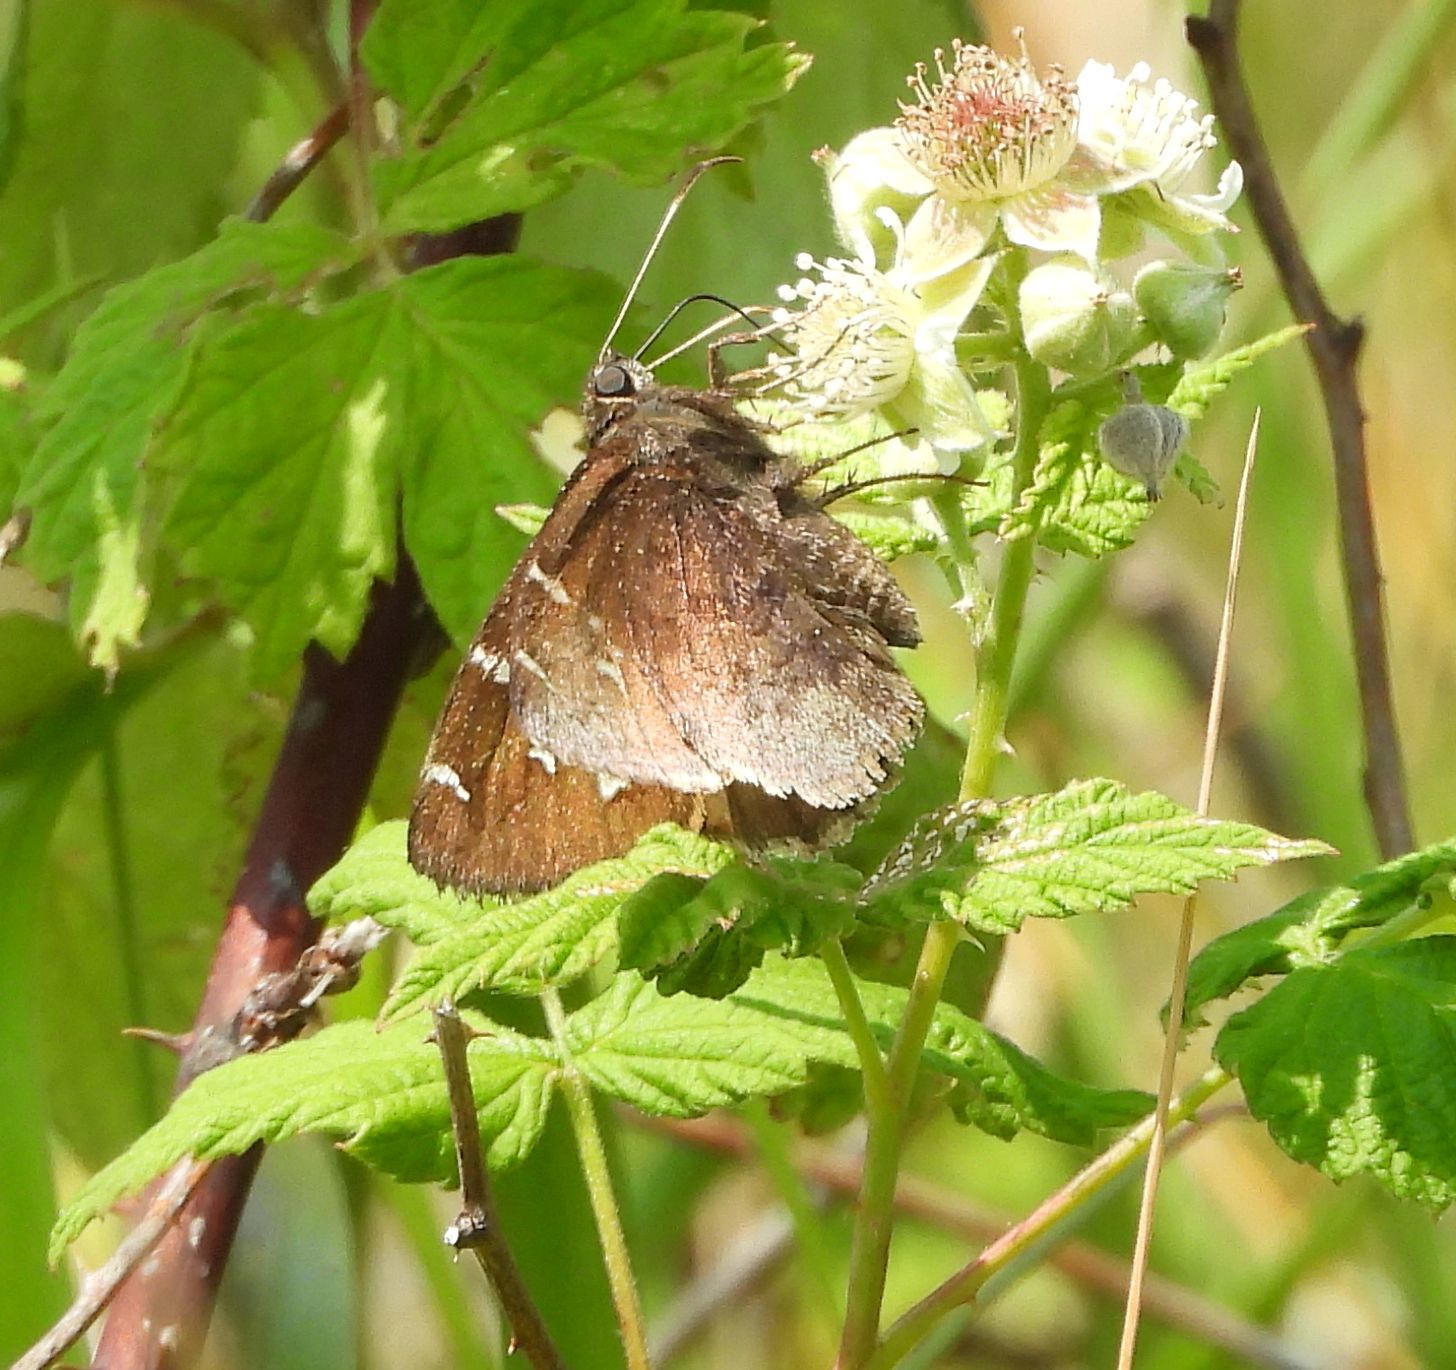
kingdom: Animalia
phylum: Arthropoda
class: Insecta
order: Lepidoptera
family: Hesperiidae
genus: Thorybes
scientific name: Thorybes pylades
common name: Northern cloudywing
